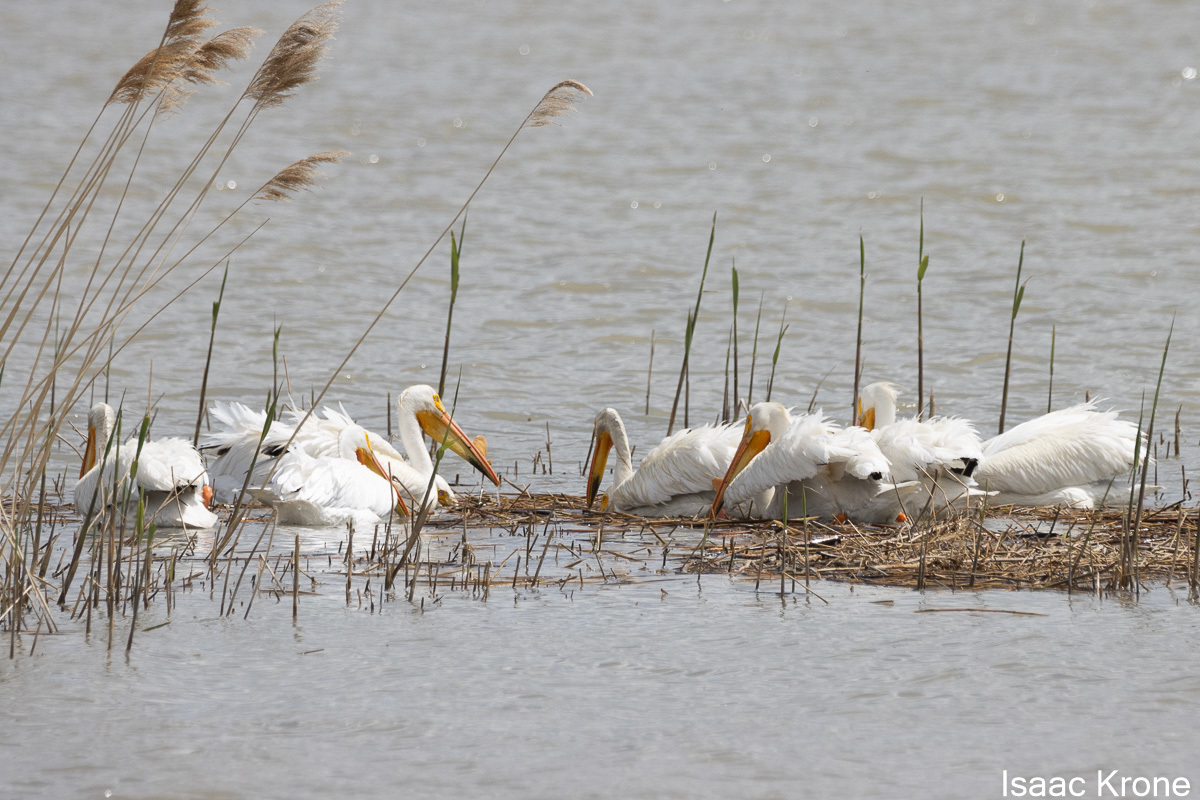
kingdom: Animalia
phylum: Chordata
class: Aves
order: Pelecaniformes
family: Pelecanidae
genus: Pelecanus
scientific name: Pelecanus erythrorhynchos
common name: American white pelican
